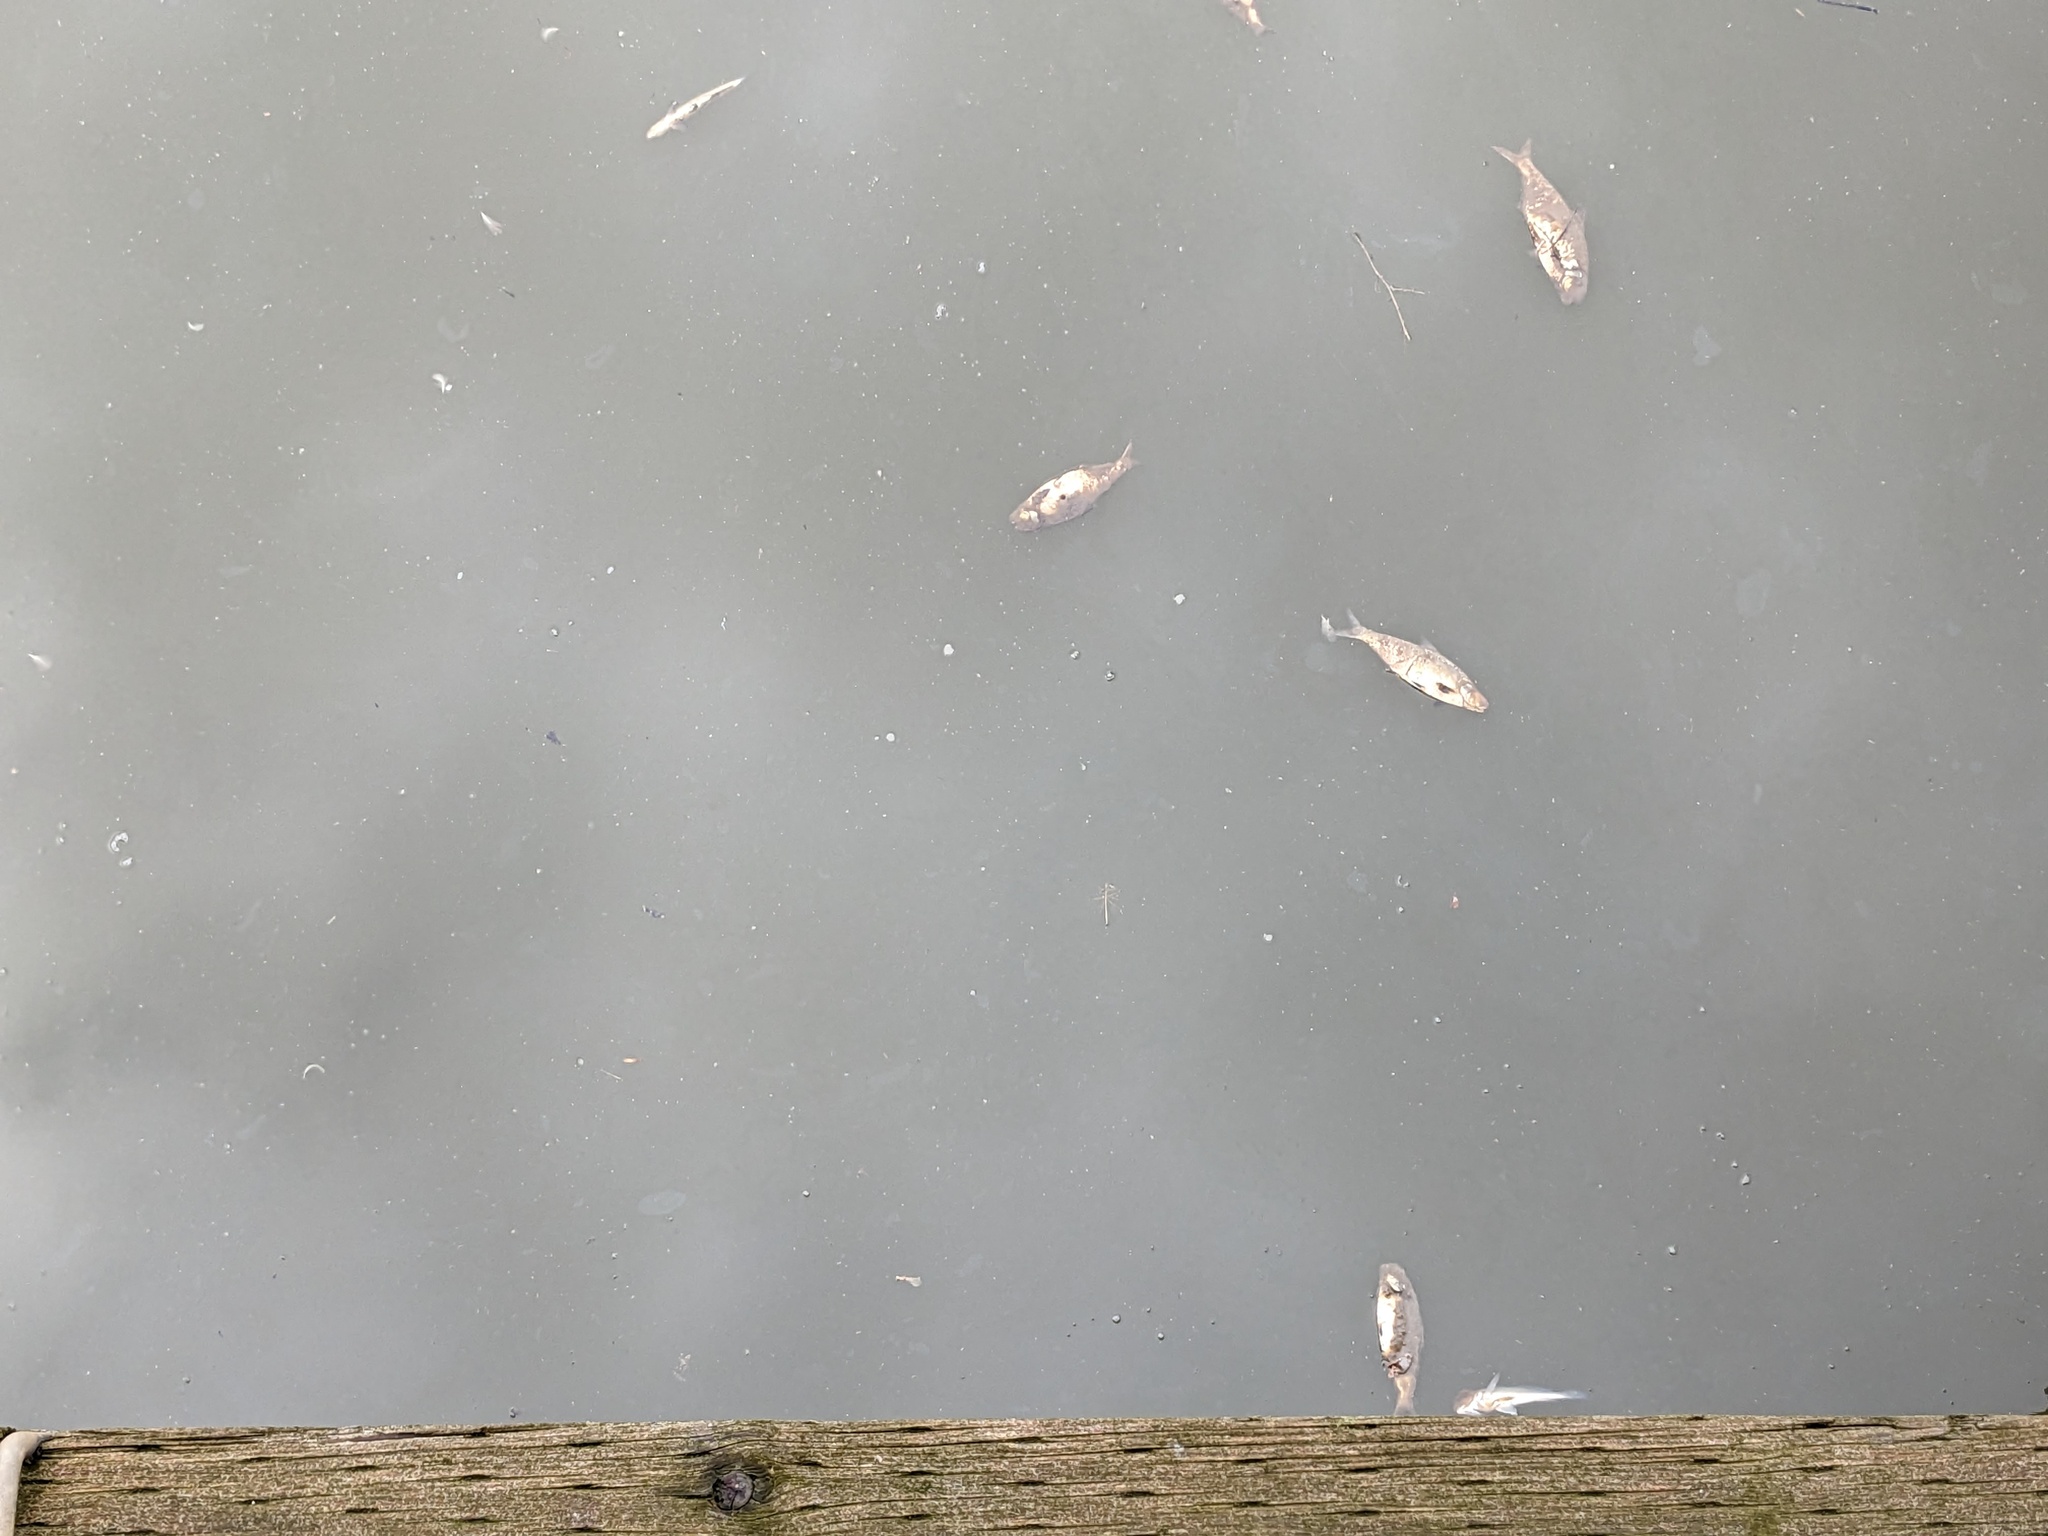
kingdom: Animalia
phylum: Chordata
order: Clupeiformes
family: Clupeidae
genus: Dorosoma
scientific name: Dorosoma cepedianum
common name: Gizzard shad
